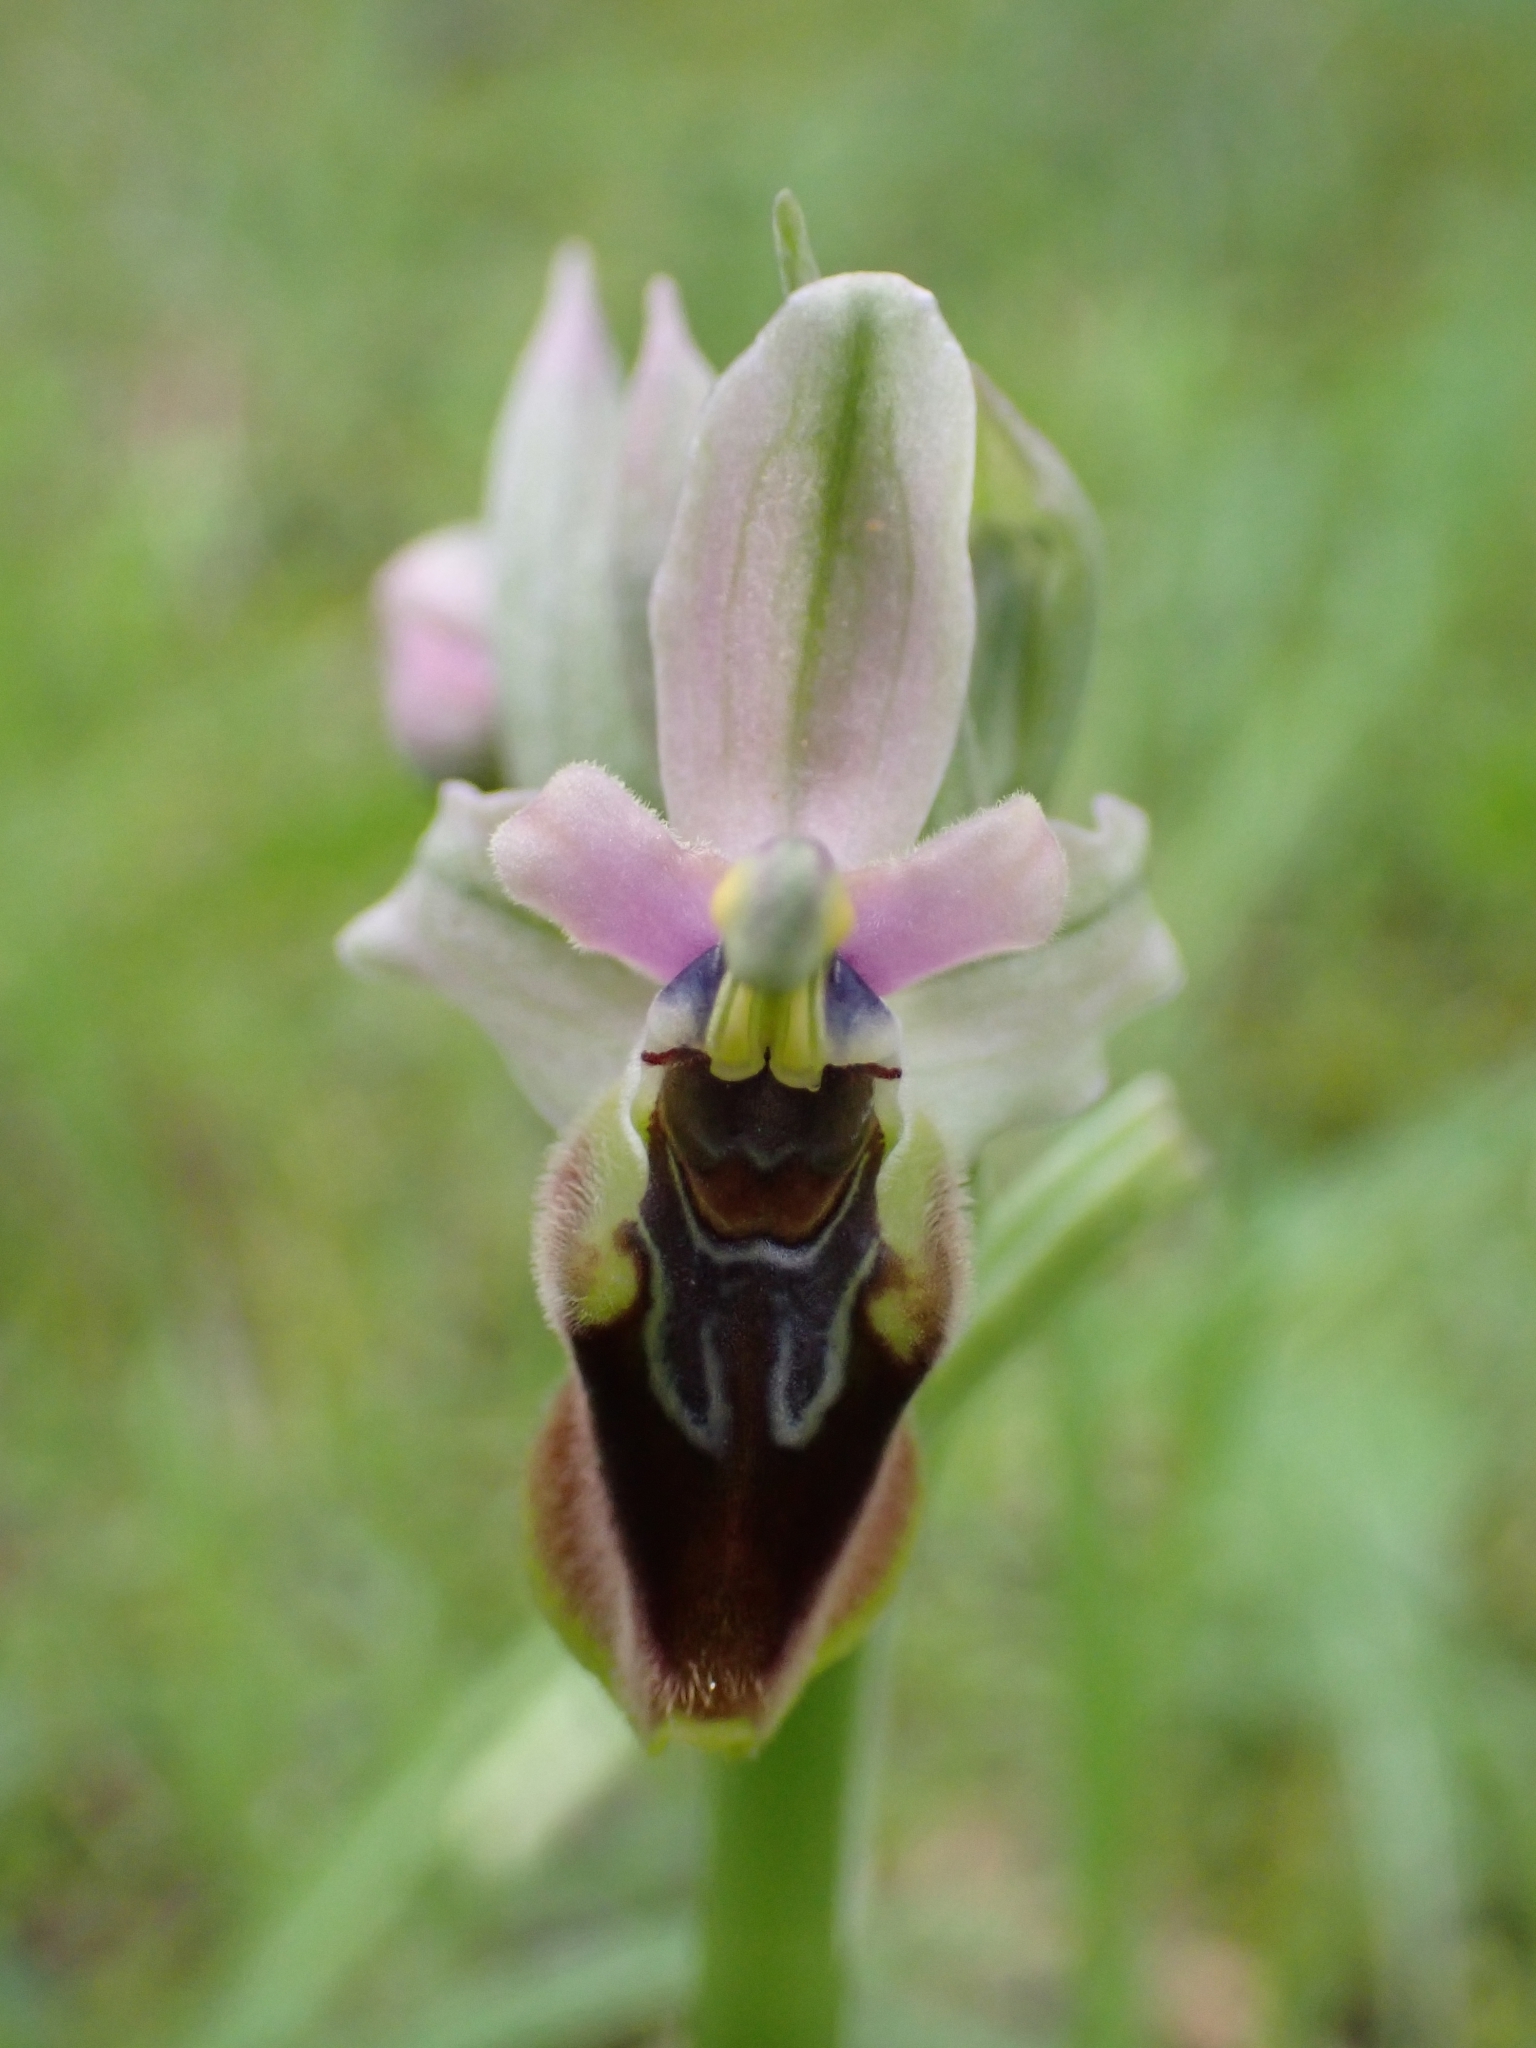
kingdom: Plantae
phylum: Tracheophyta
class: Liliopsida
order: Asparagales
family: Orchidaceae
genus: Ophrys
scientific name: Ophrys tenthredinifera
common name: Sawfly orchid
